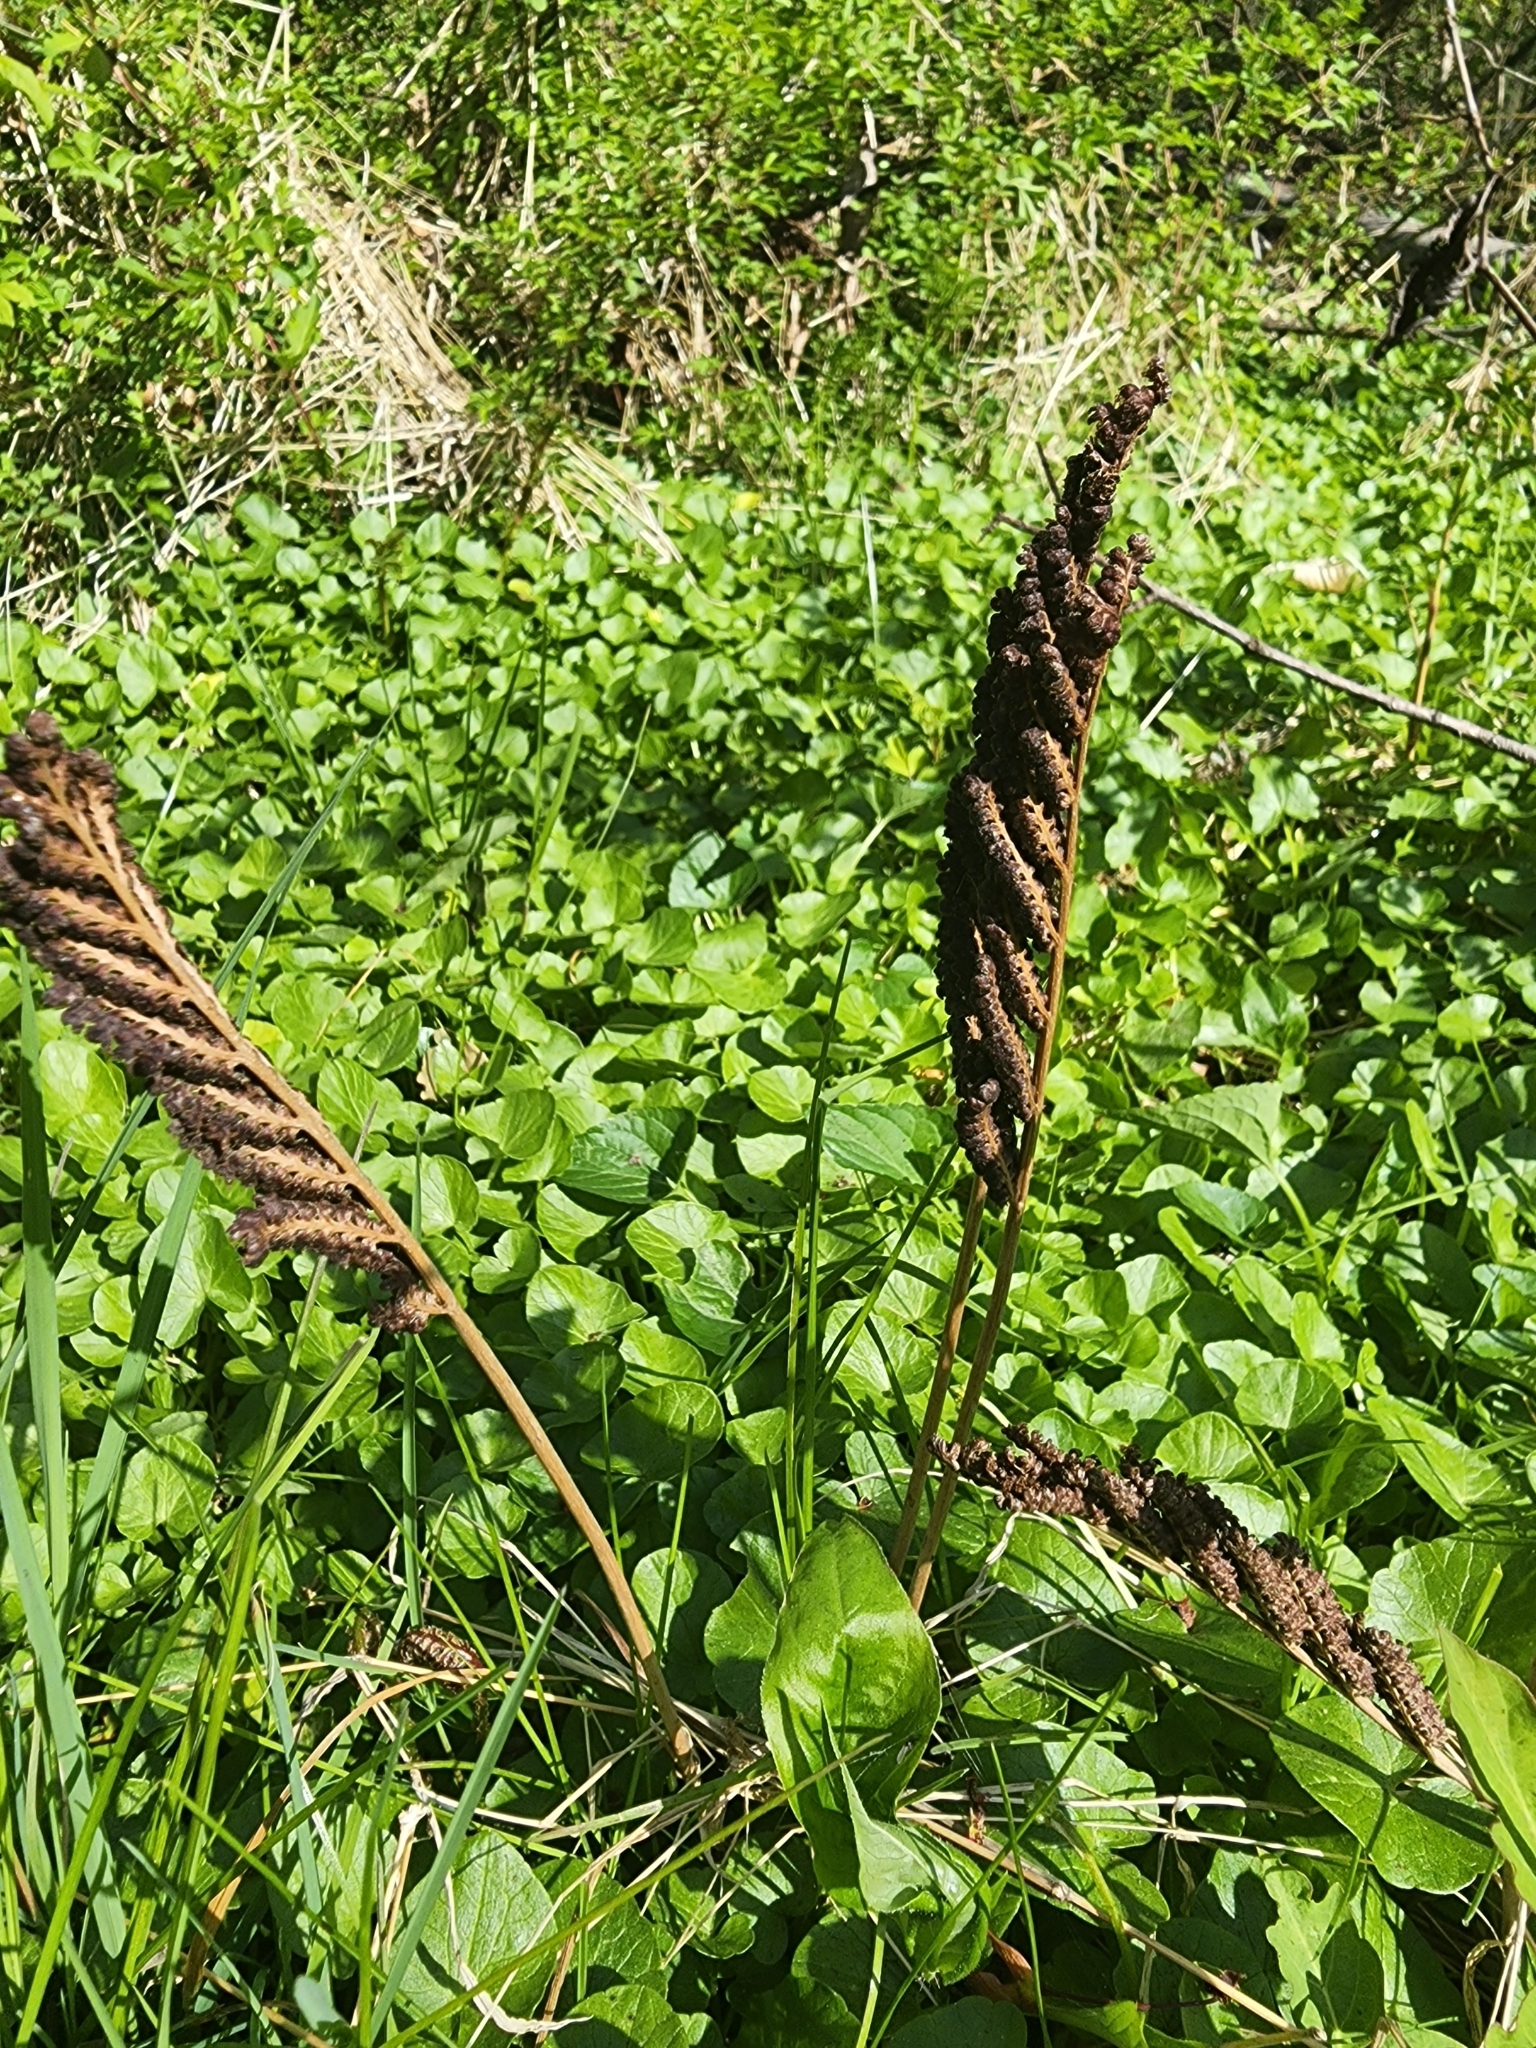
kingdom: Plantae
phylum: Tracheophyta
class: Polypodiopsida
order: Polypodiales
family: Onocleaceae
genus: Onoclea
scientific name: Onoclea sensibilis
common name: Sensitive fern
